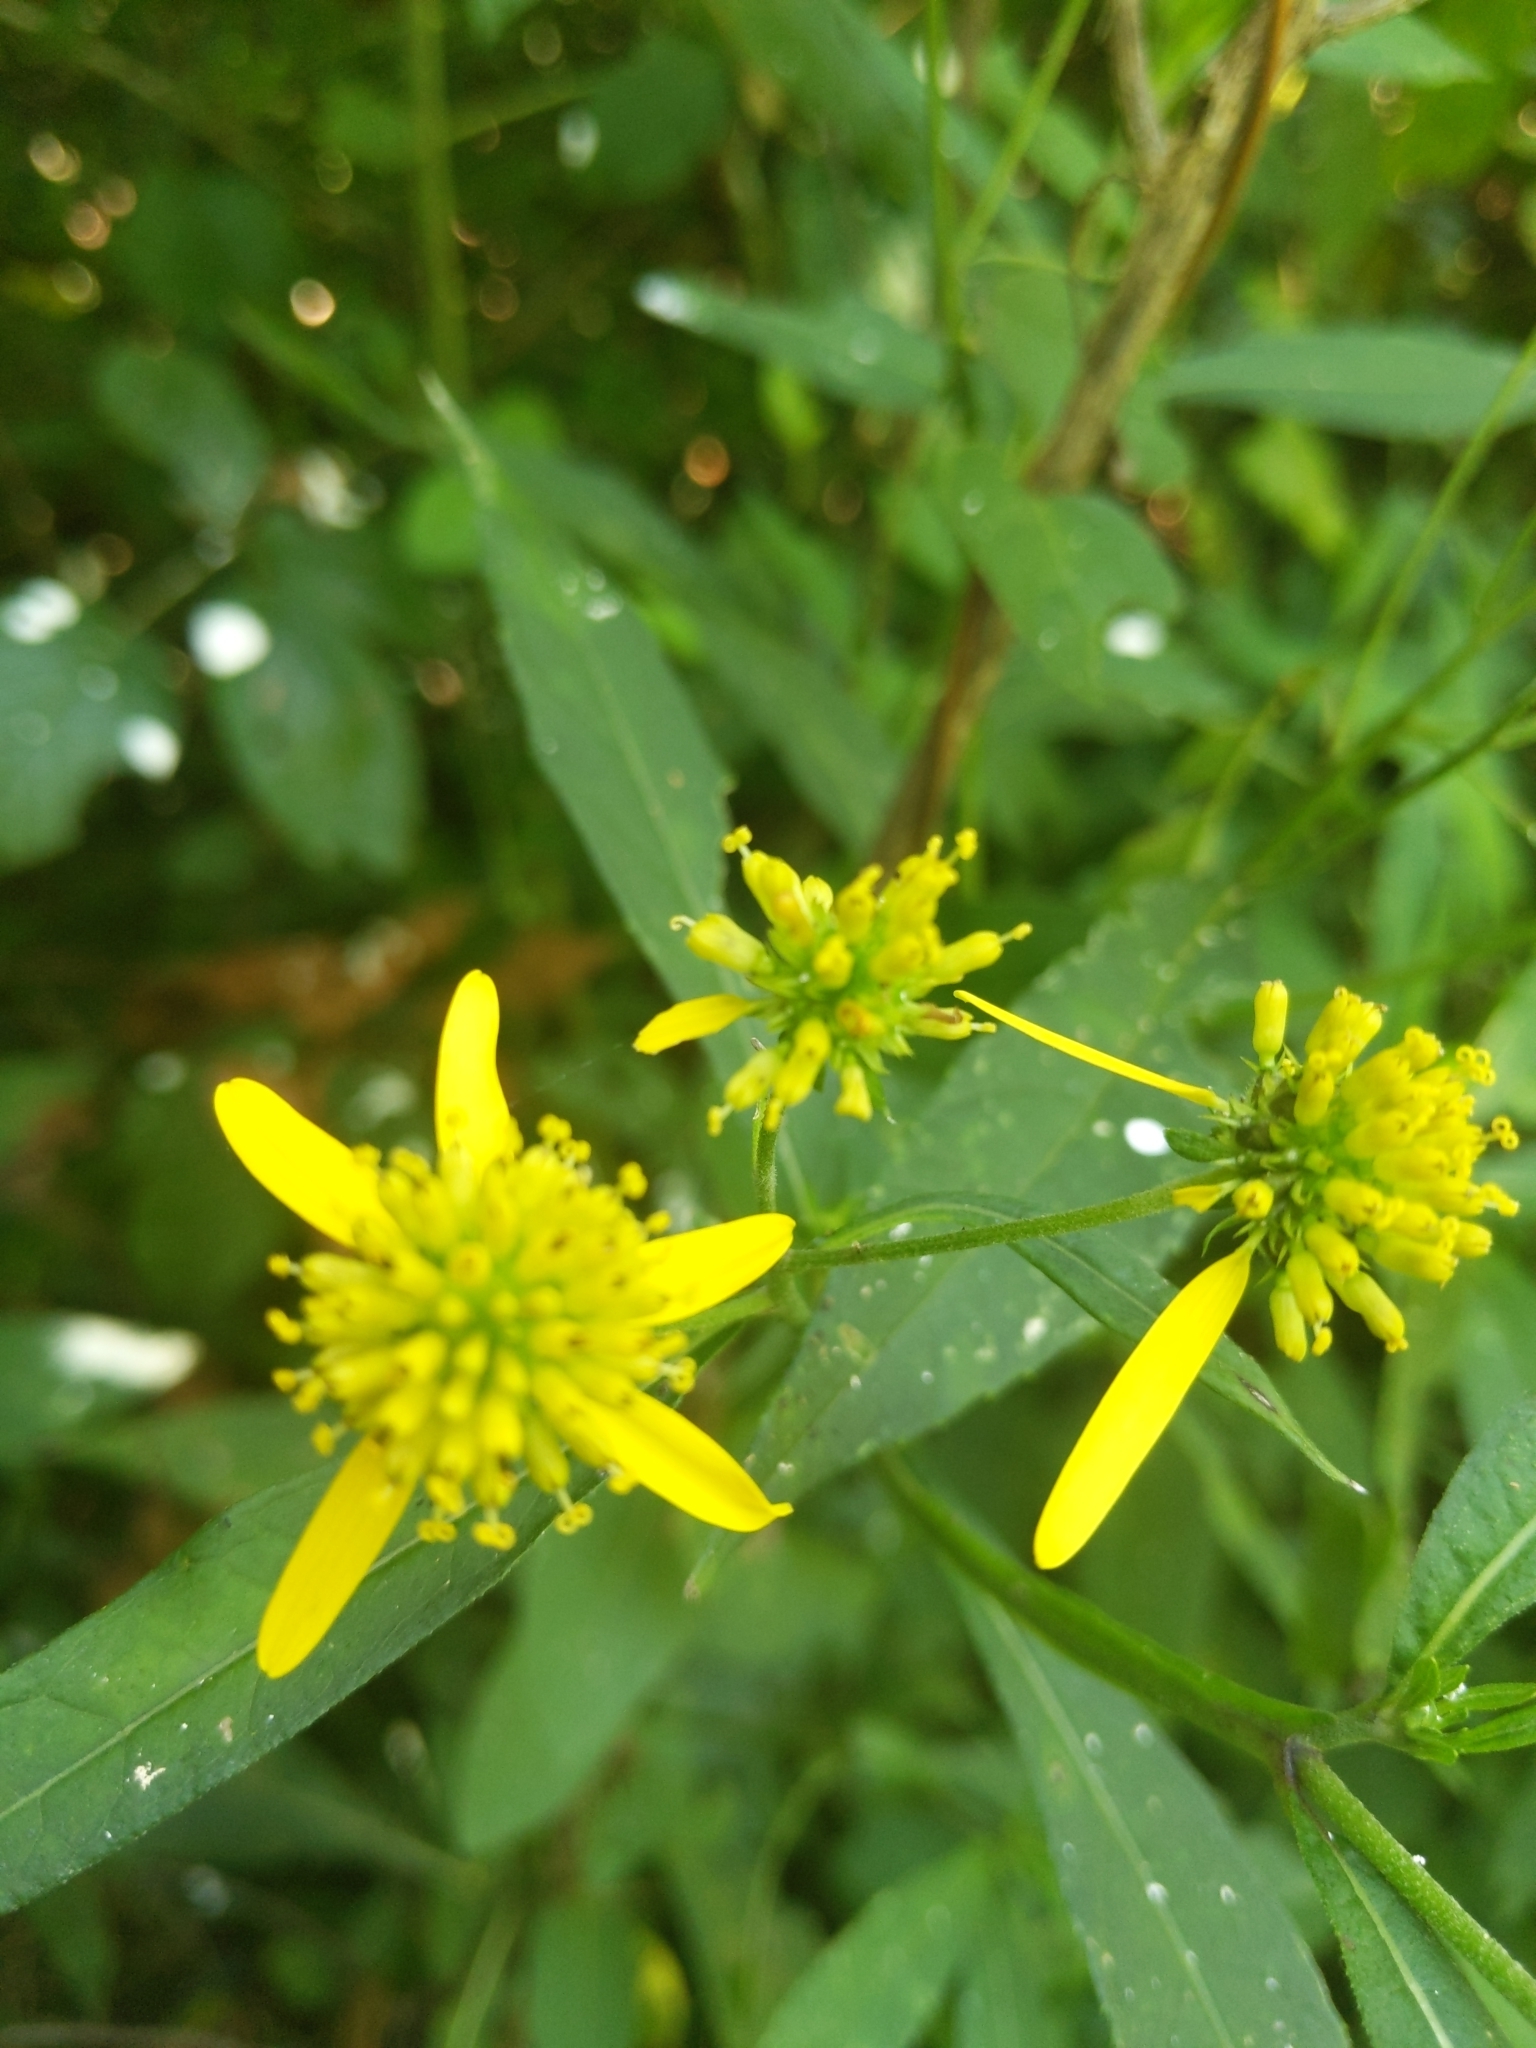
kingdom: Plantae
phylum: Tracheophyta
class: Magnoliopsida
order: Asterales
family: Asteraceae
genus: Verbesina
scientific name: Verbesina alternifolia
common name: Wingstem
